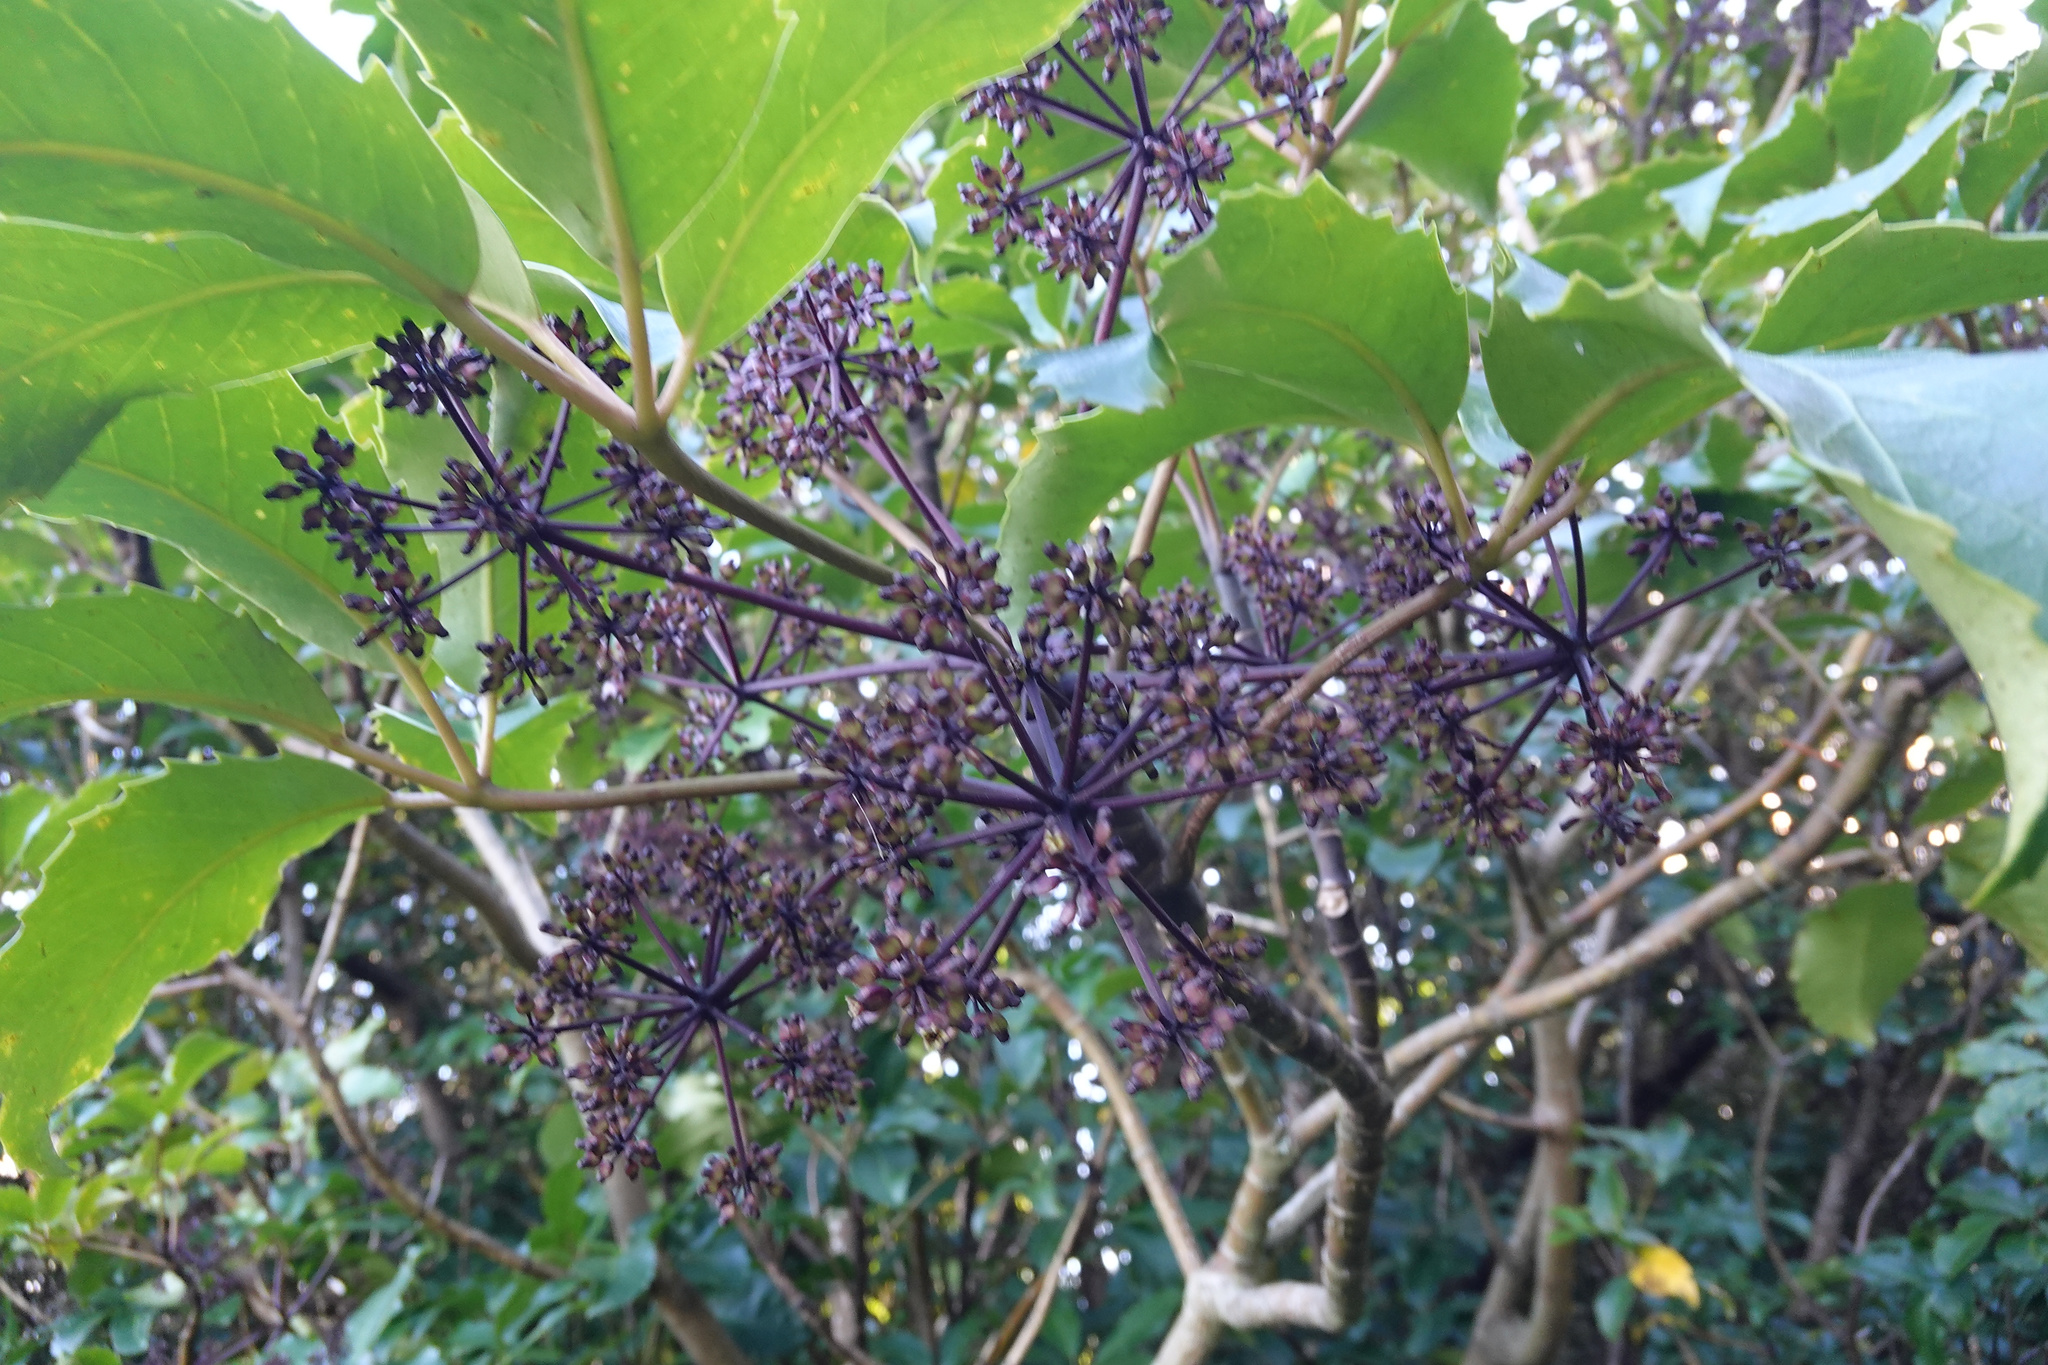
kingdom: Plantae
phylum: Tracheophyta
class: Magnoliopsida
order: Apiales
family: Araliaceae
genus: Neopanax
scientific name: Neopanax arboreus
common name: Five-fingers
